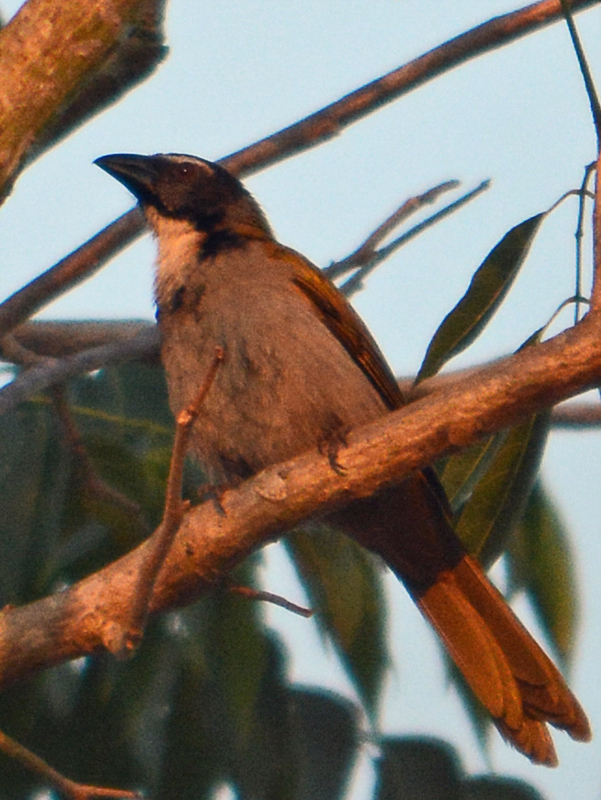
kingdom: Animalia
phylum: Chordata
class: Aves
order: Passeriformes
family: Thraupidae
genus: Saltator
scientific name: Saltator atriceps
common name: Black-headed saltator
